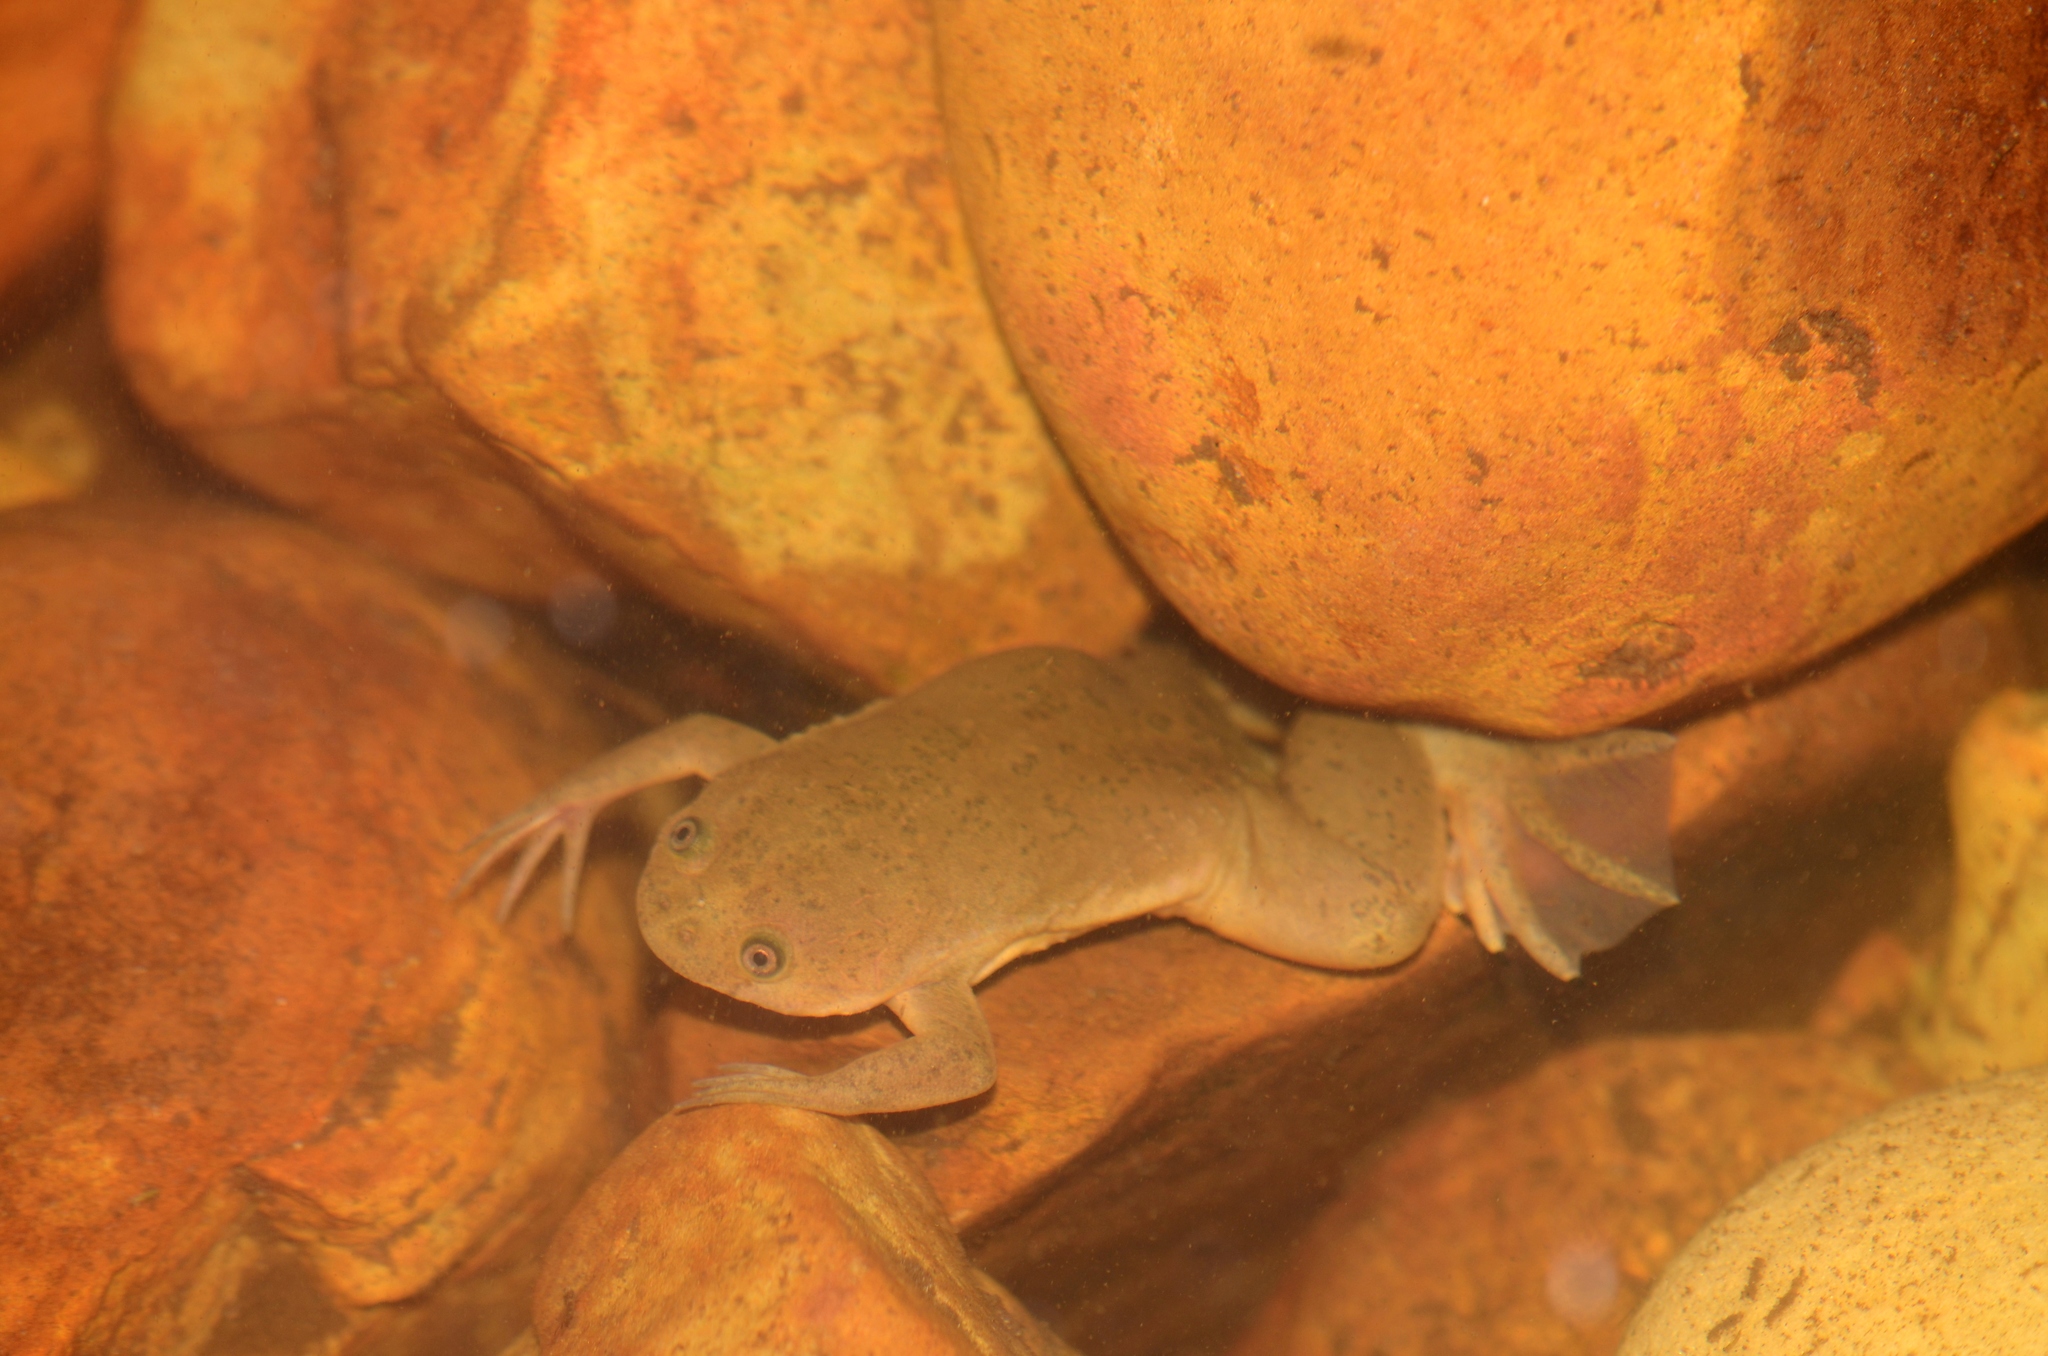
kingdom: Animalia
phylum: Chordata
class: Amphibia
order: Anura
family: Pipidae
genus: Xenopus
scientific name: Xenopus laevis
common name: African clawed frog
